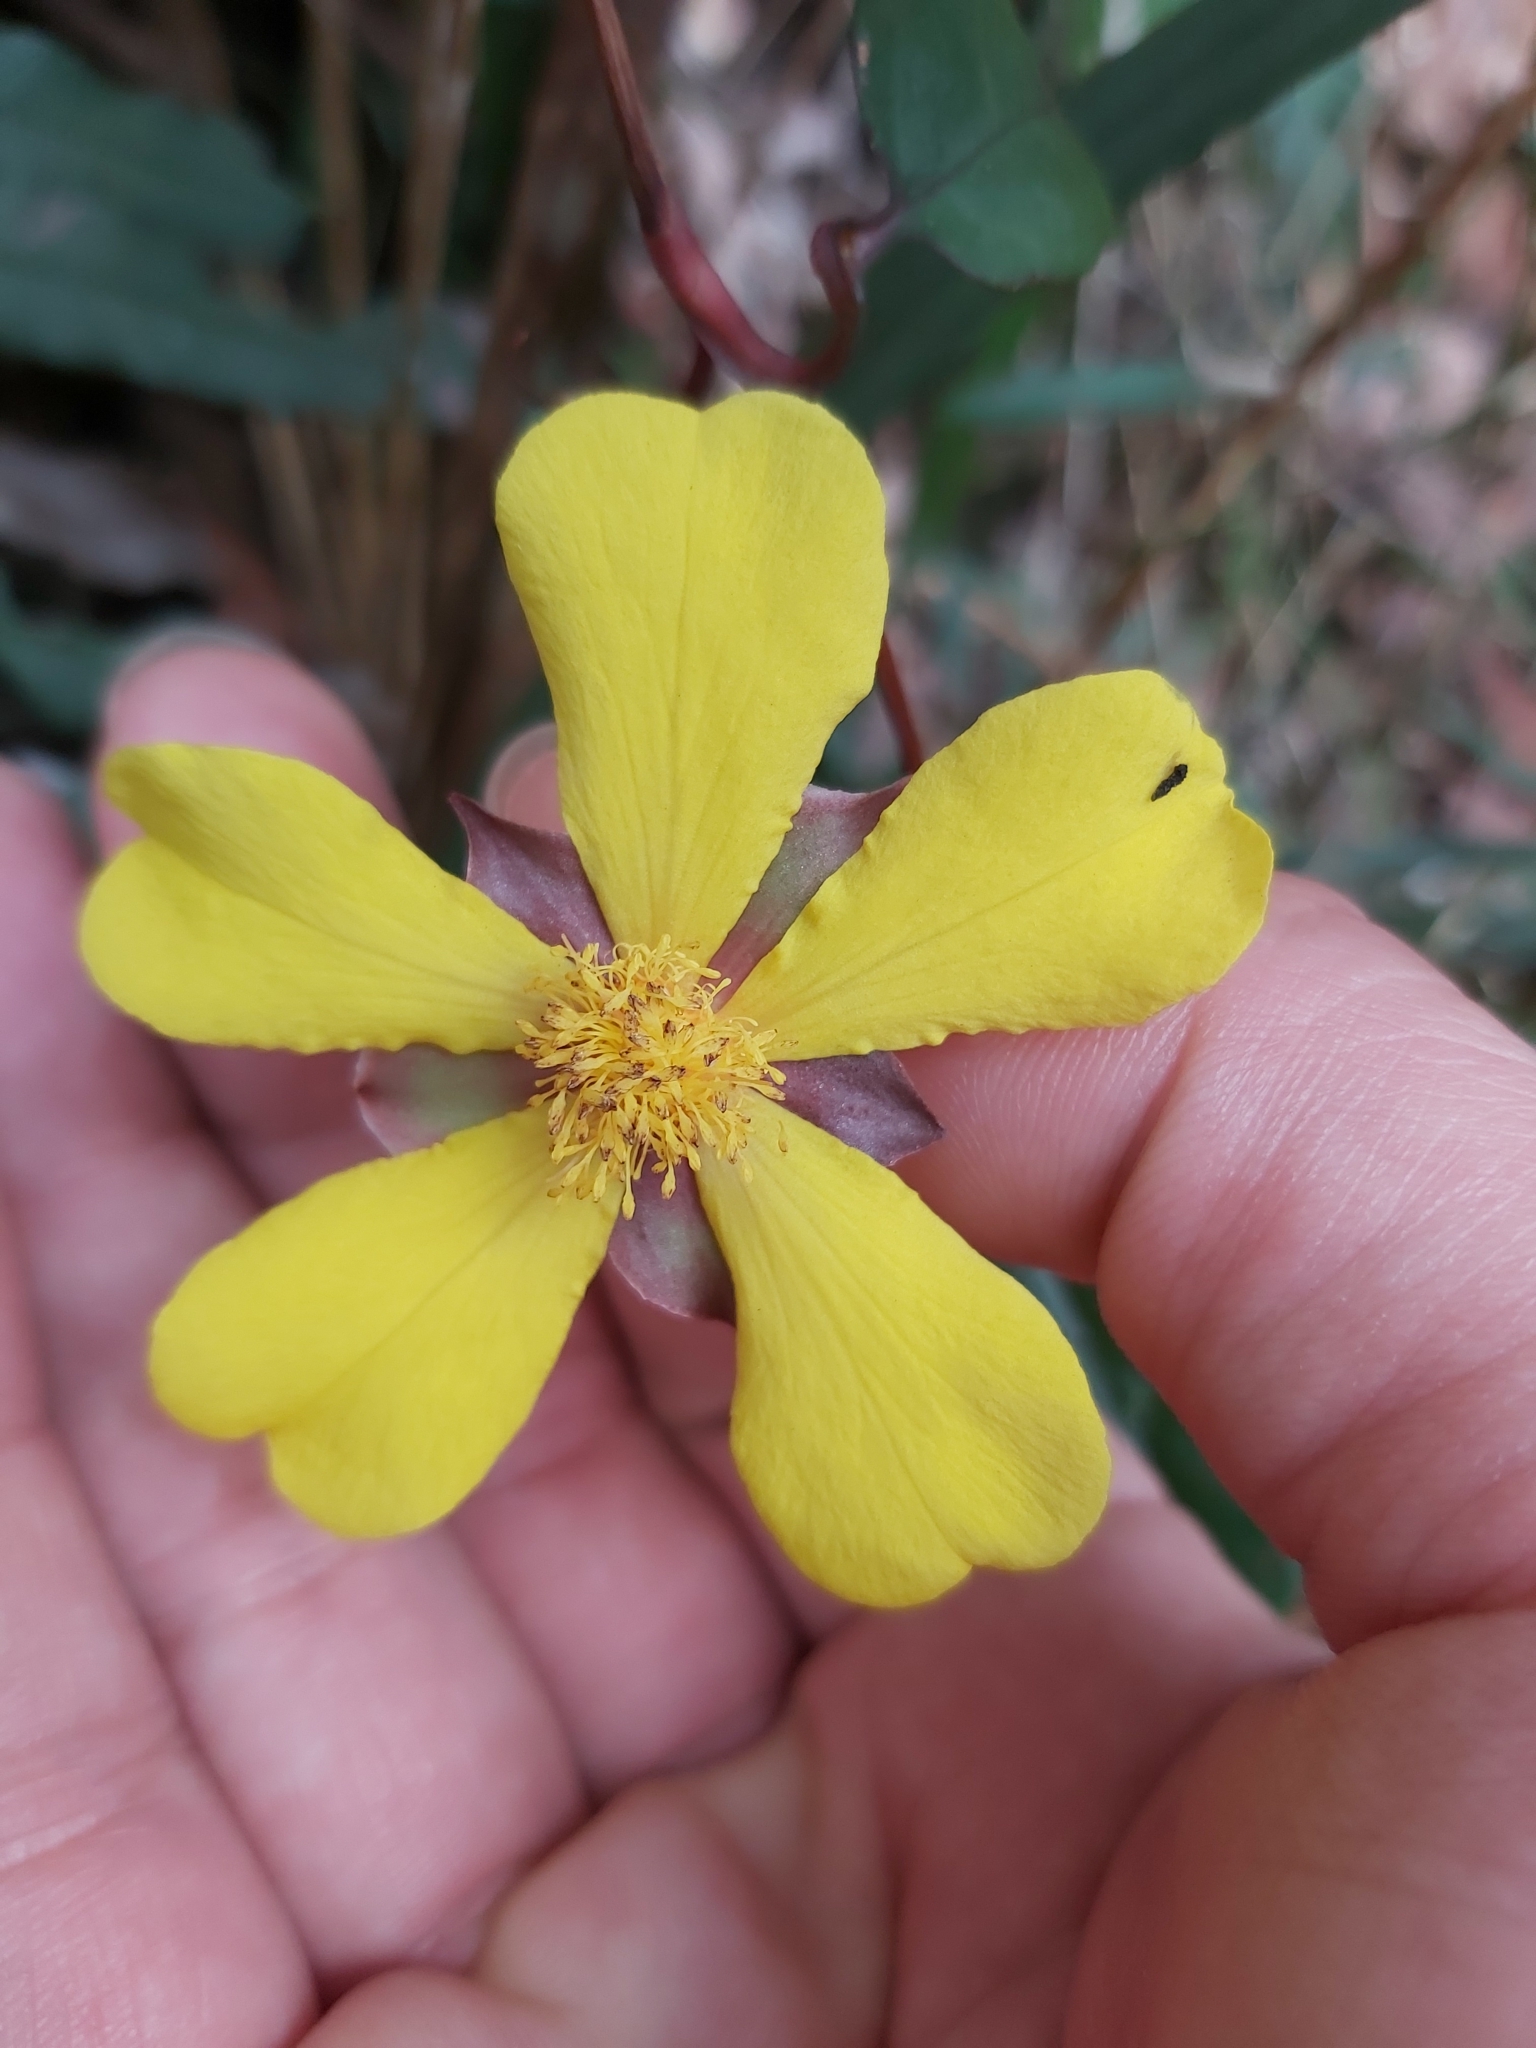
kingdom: Plantae
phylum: Tracheophyta
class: Magnoliopsida
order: Dilleniales
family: Dilleniaceae
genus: Hibbertia
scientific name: Hibbertia dentata
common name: Trailing guinea-flower
